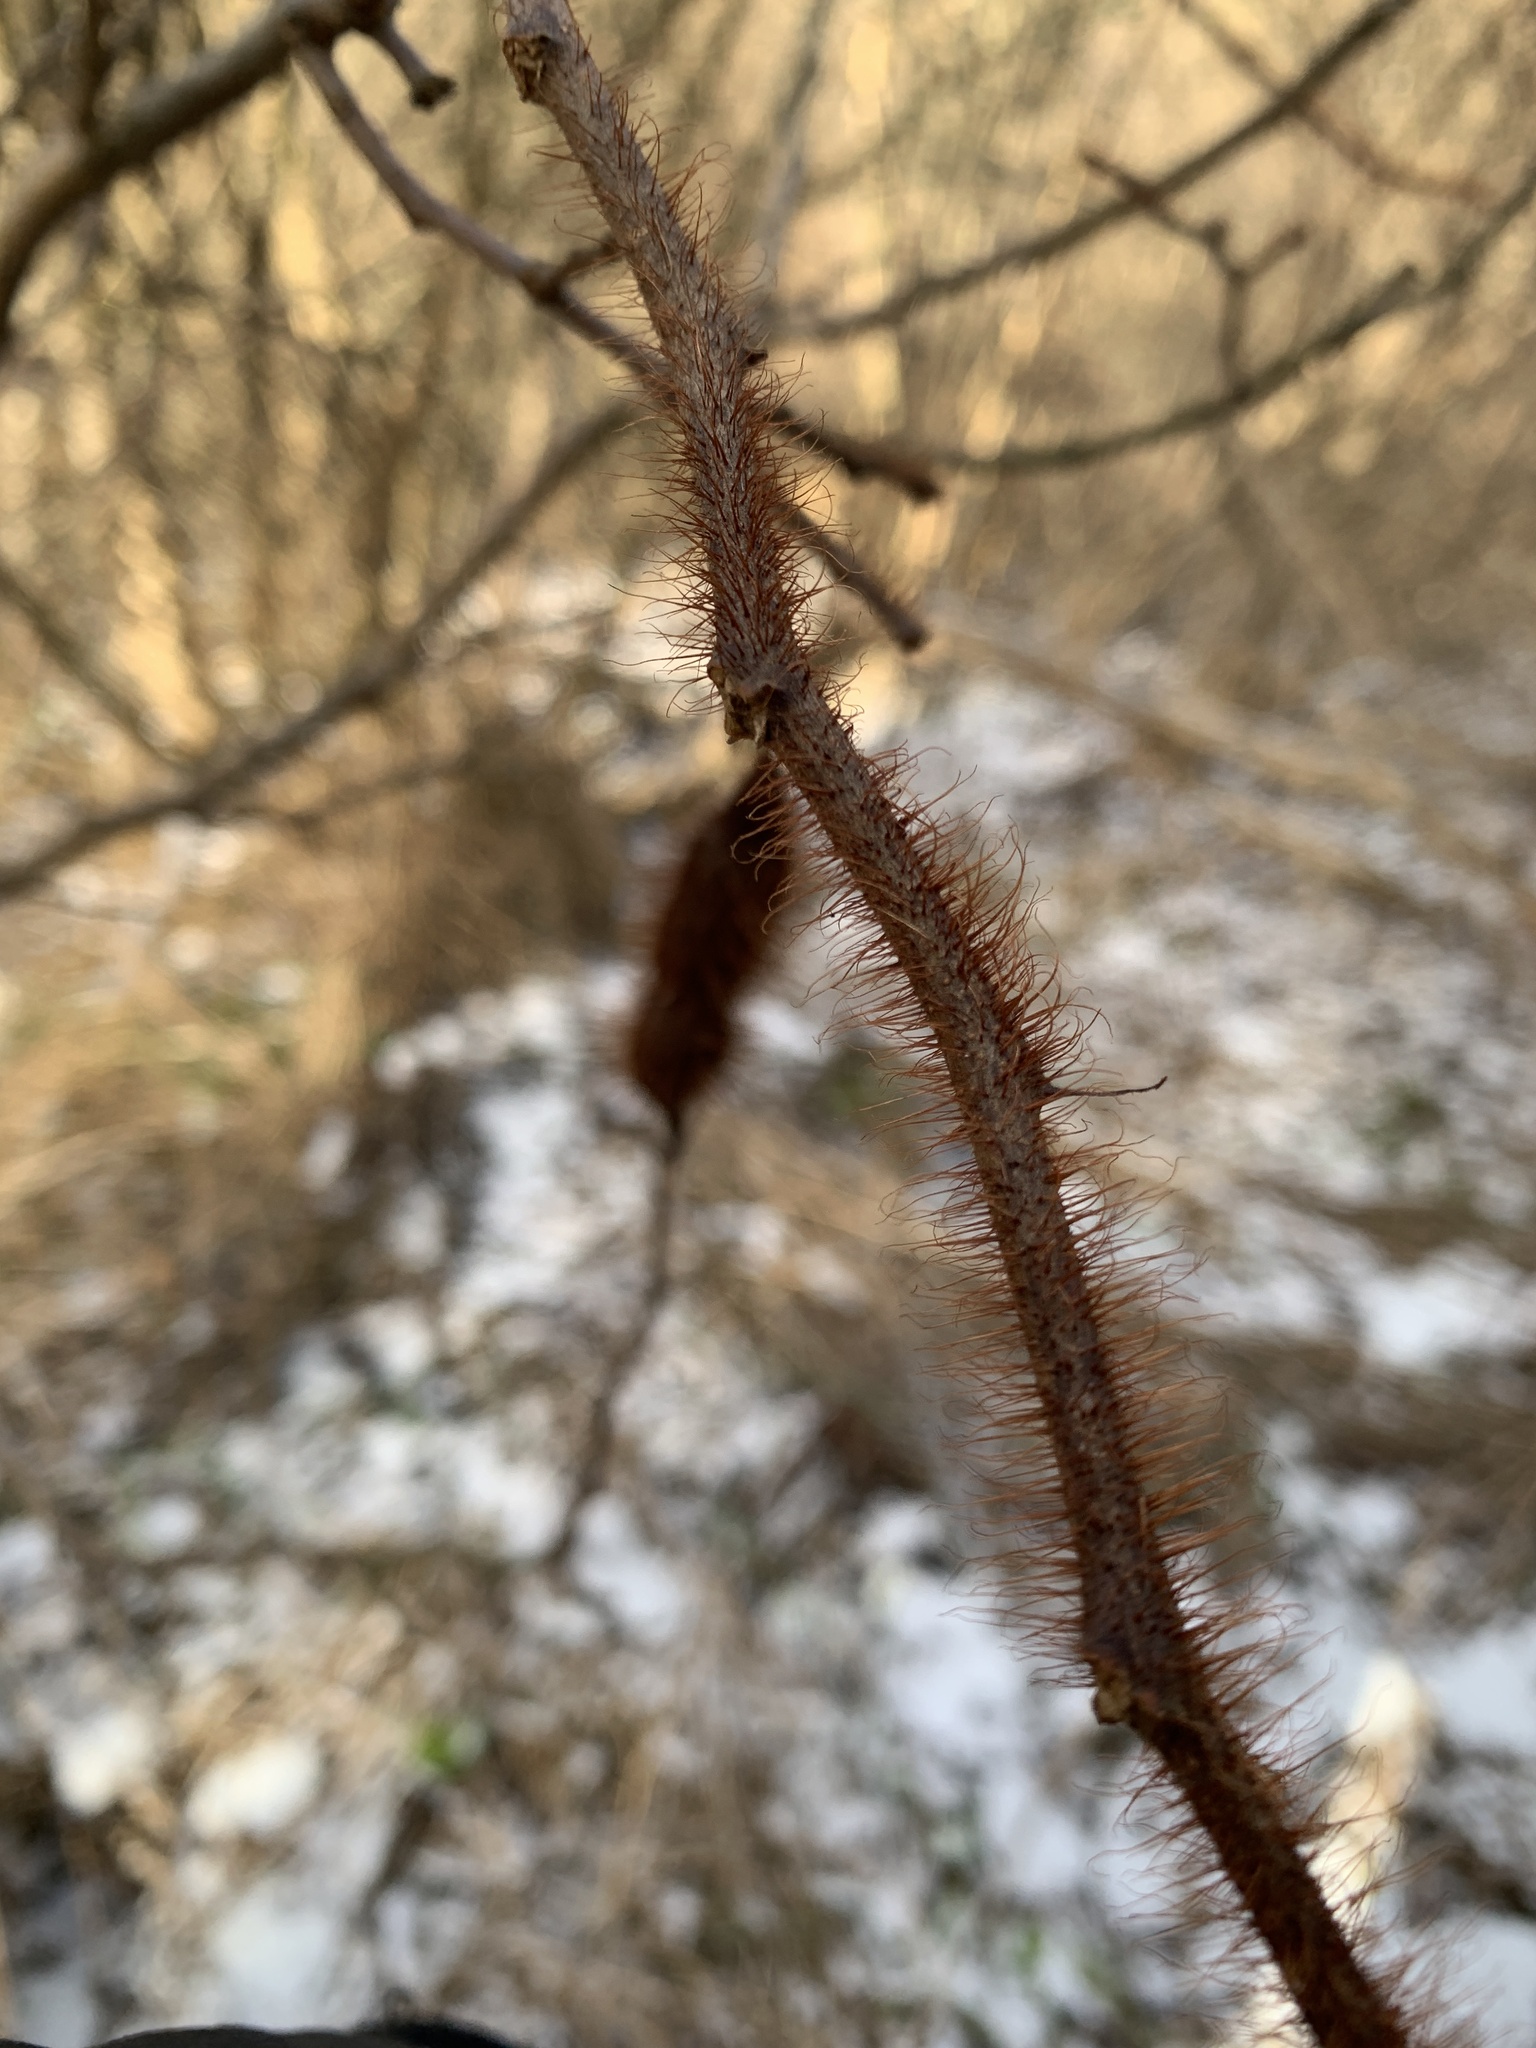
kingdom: Plantae
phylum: Tracheophyta
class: Magnoliopsida
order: Fabales
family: Fabaceae
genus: Robinia
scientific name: Robinia hispida
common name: Bristly locust
